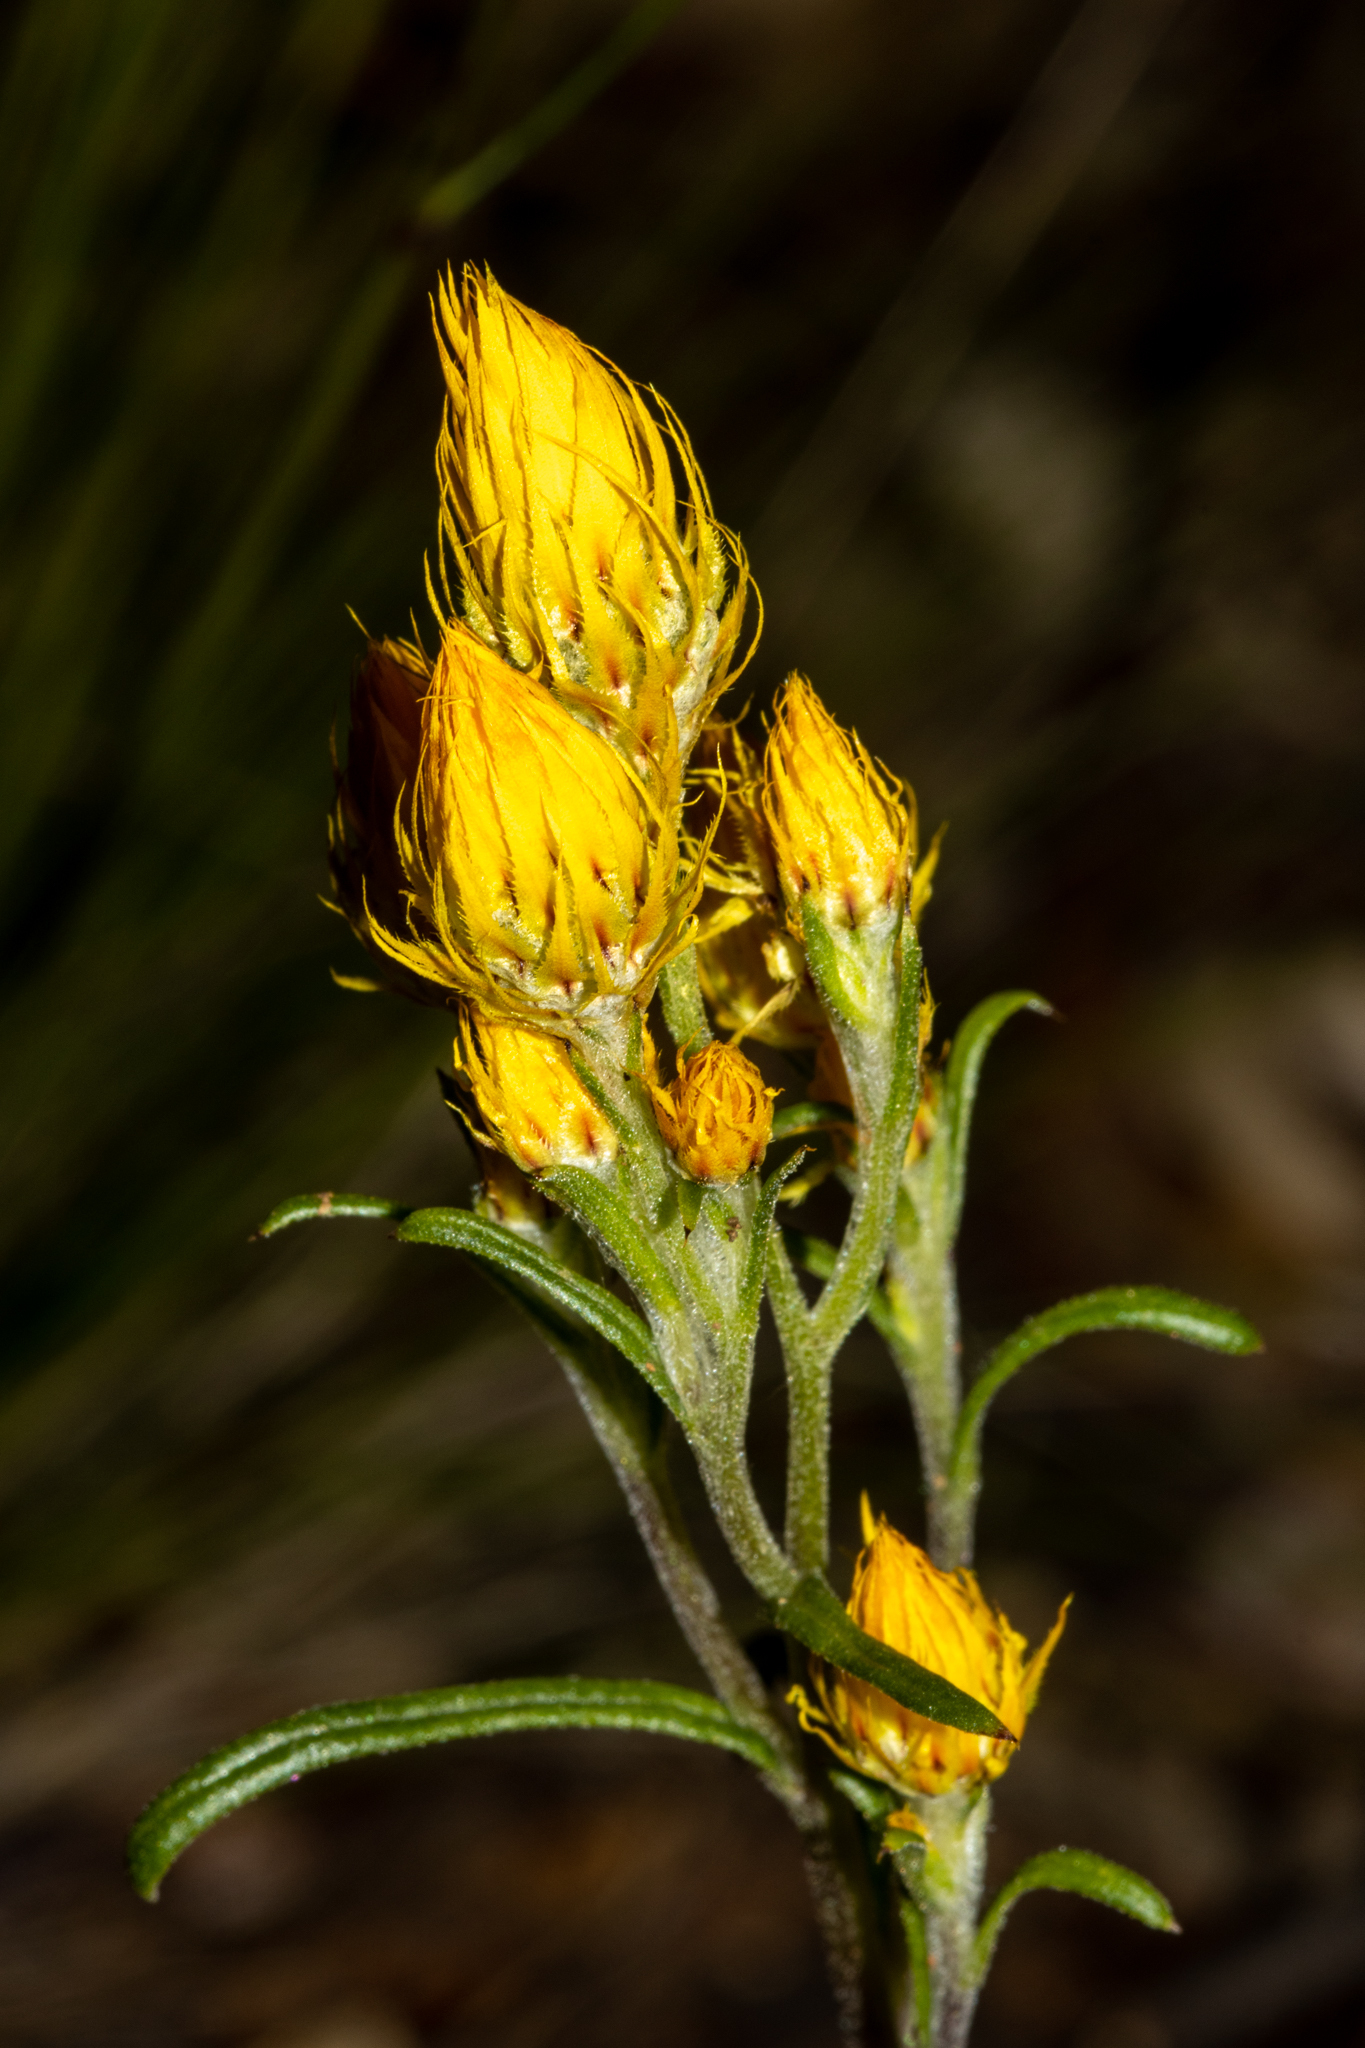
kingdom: Plantae
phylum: Tracheophyta
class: Magnoliopsida
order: Asterales
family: Asteraceae
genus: Waitzia
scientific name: Waitzia acuminata
